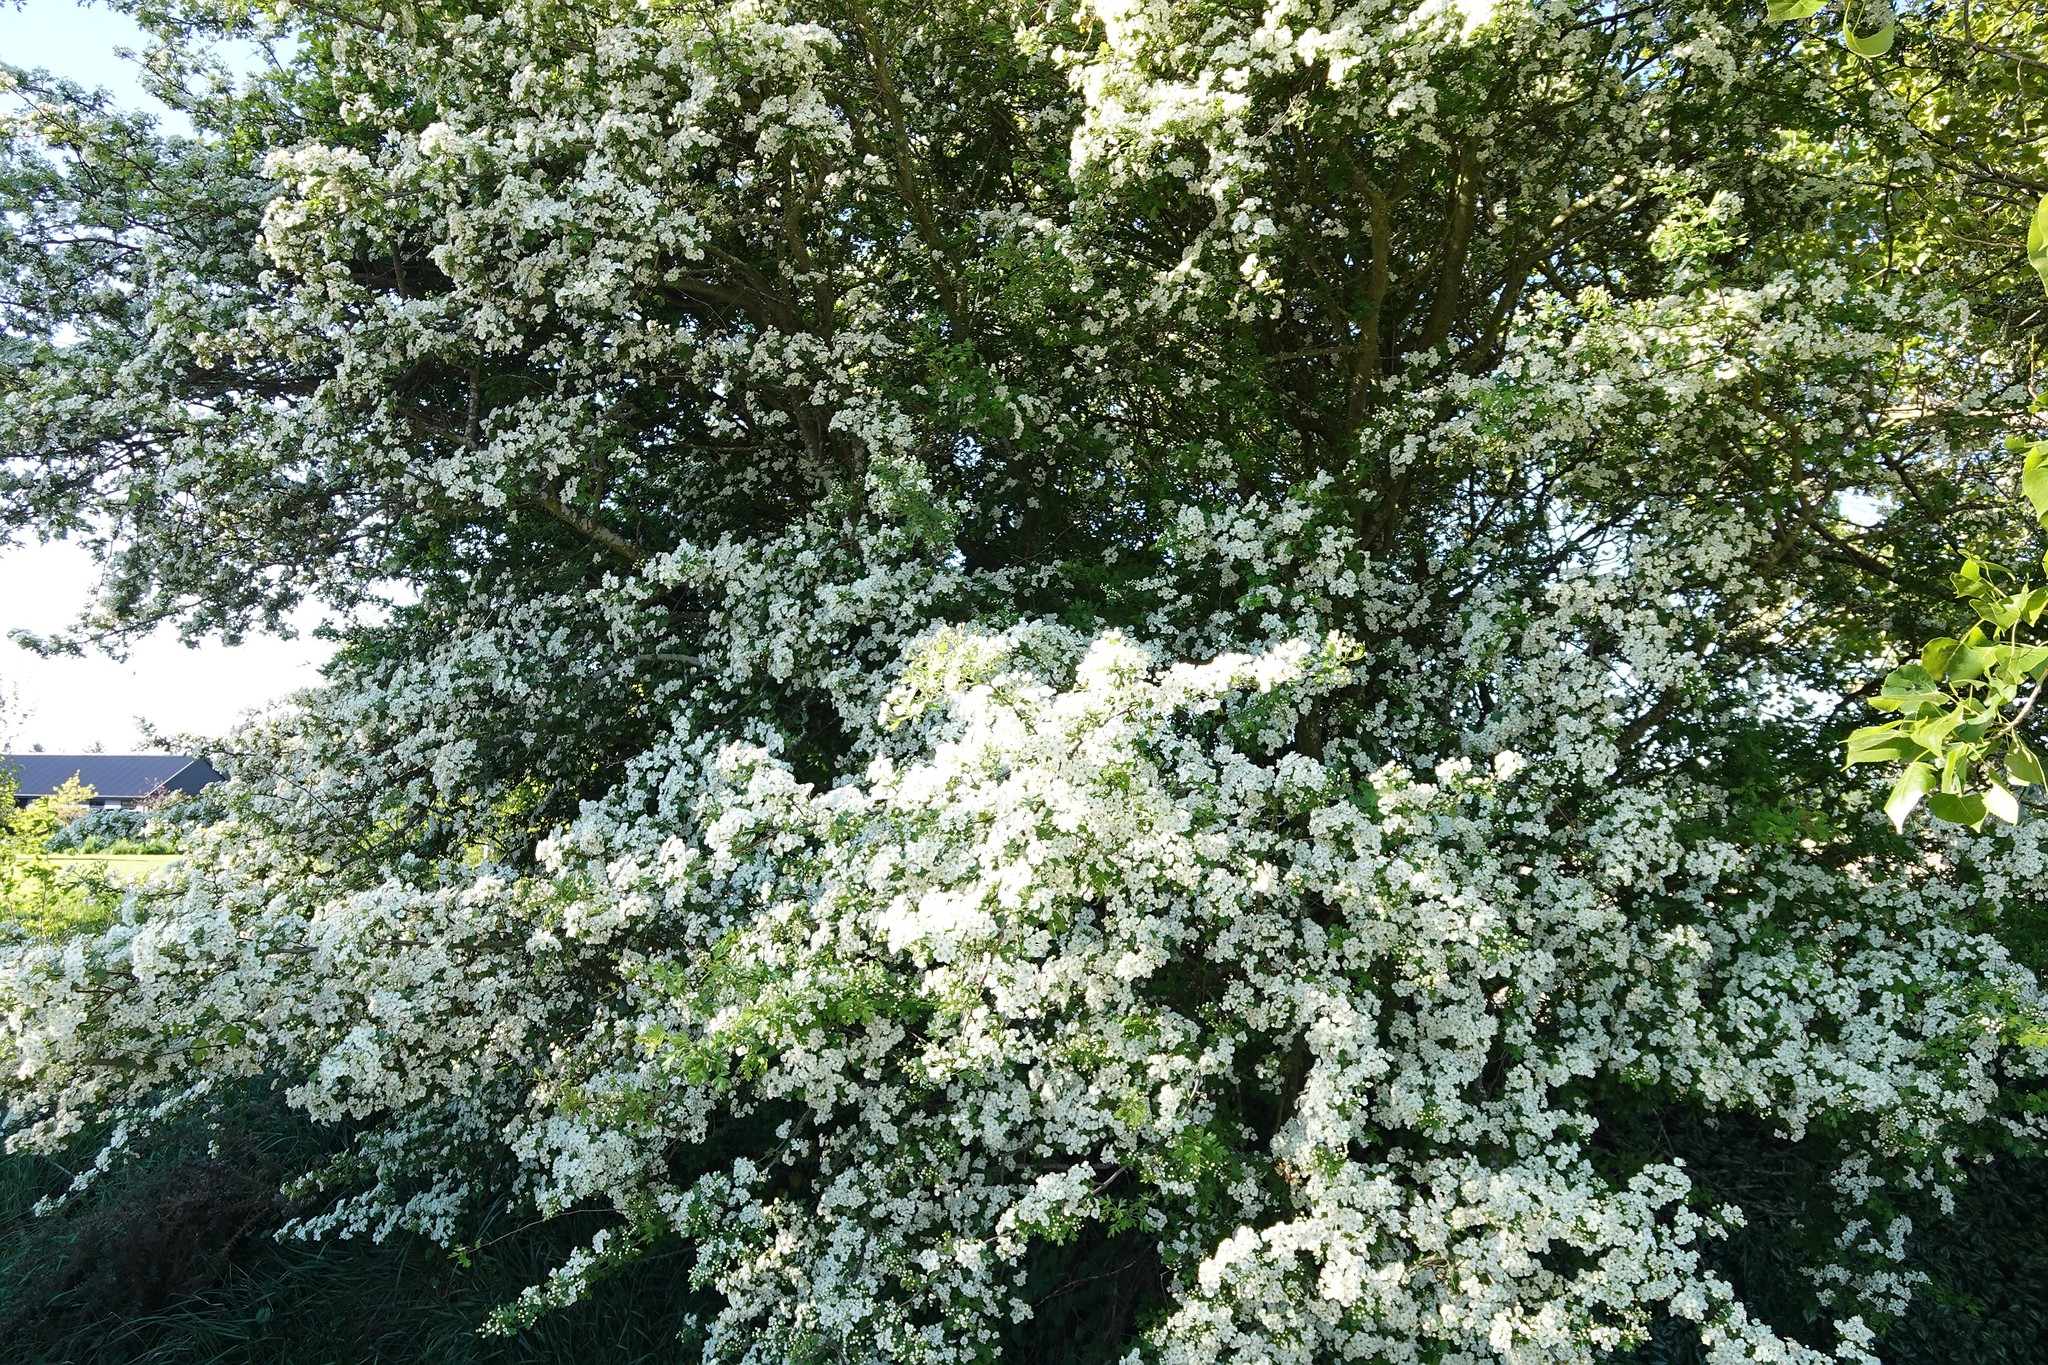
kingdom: Plantae
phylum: Tracheophyta
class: Magnoliopsida
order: Rosales
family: Rosaceae
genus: Crataegus
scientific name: Crataegus monogyna
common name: Hawthorn
